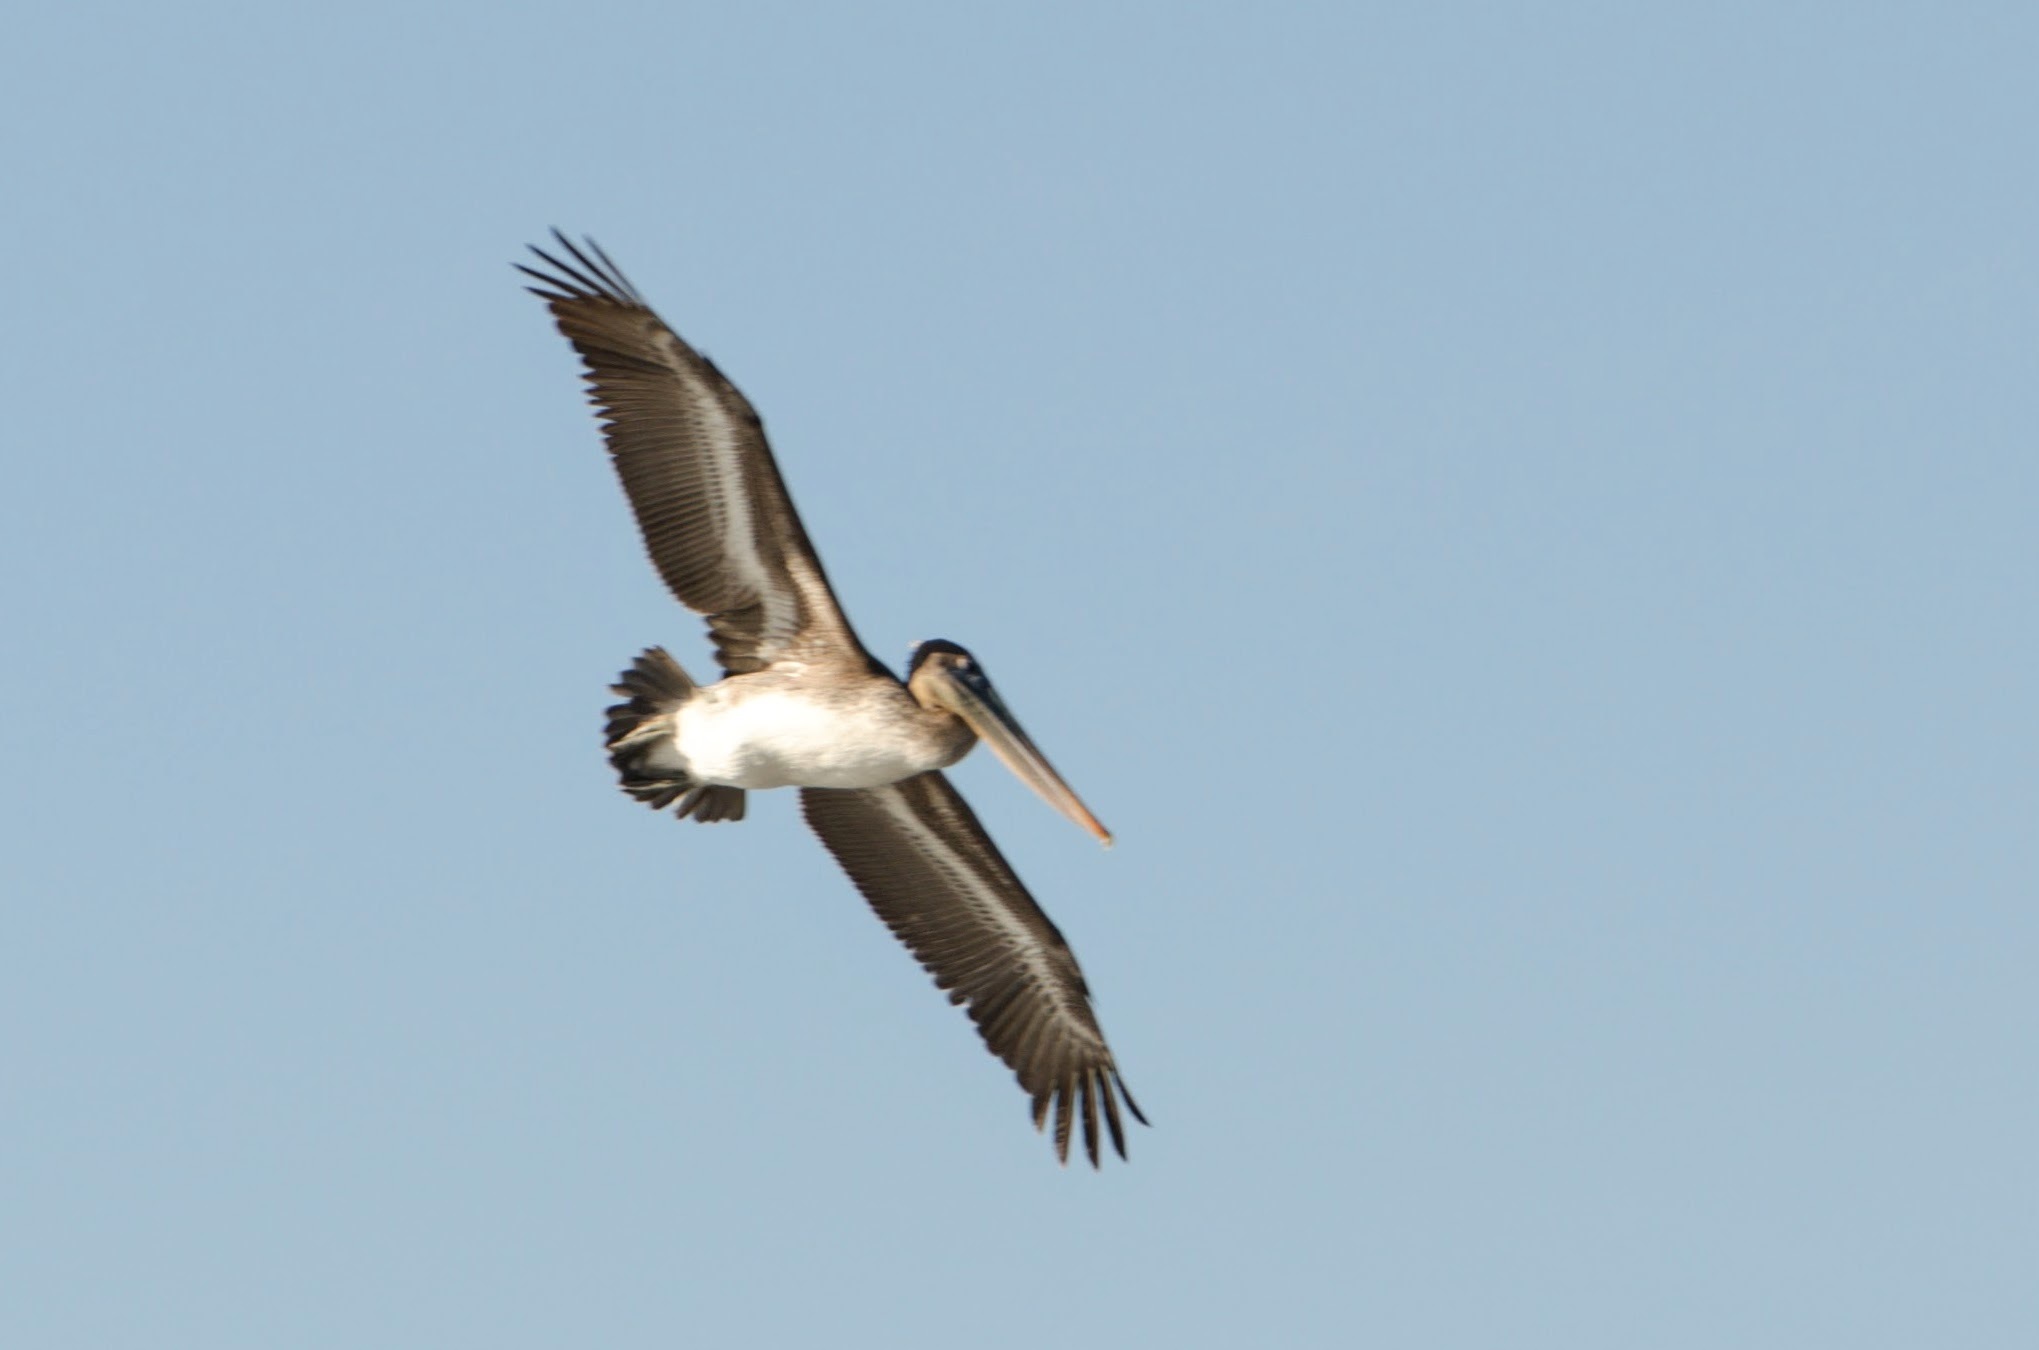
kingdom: Animalia
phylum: Chordata
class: Aves
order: Pelecaniformes
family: Pelecanidae
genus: Pelecanus
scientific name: Pelecanus occidentalis
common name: Brown pelican
